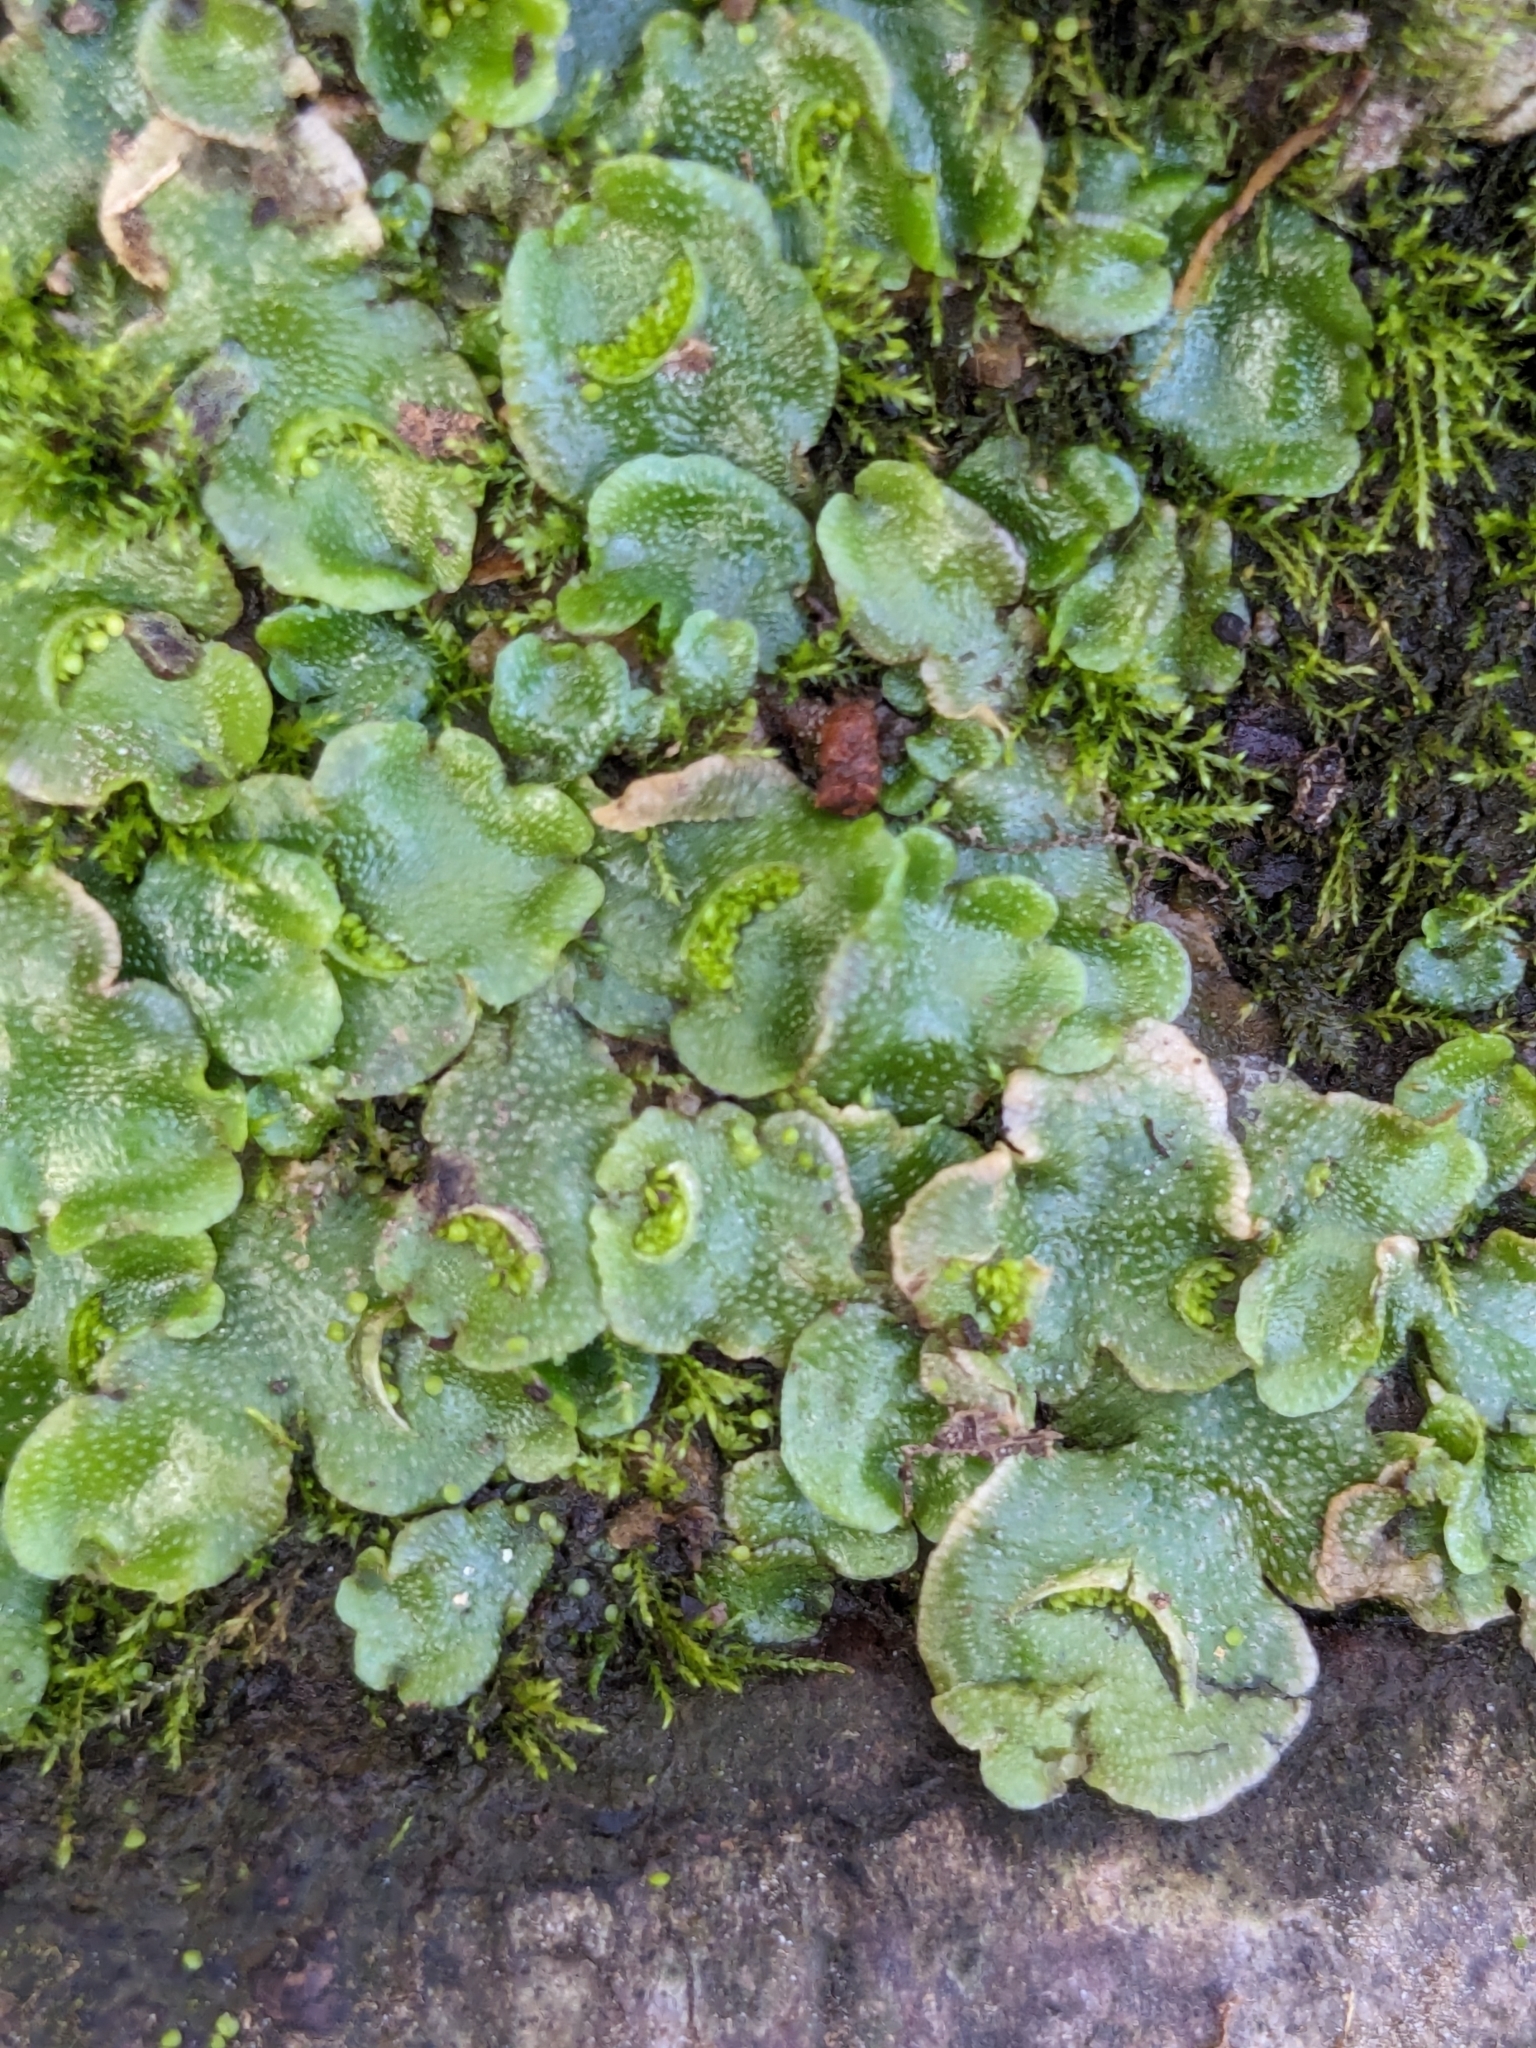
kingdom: Plantae
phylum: Marchantiophyta
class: Marchantiopsida
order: Lunulariales
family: Lunulariaceae
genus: Lunularia
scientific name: Lunularia cruciata
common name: Crescent-cup liverwort
